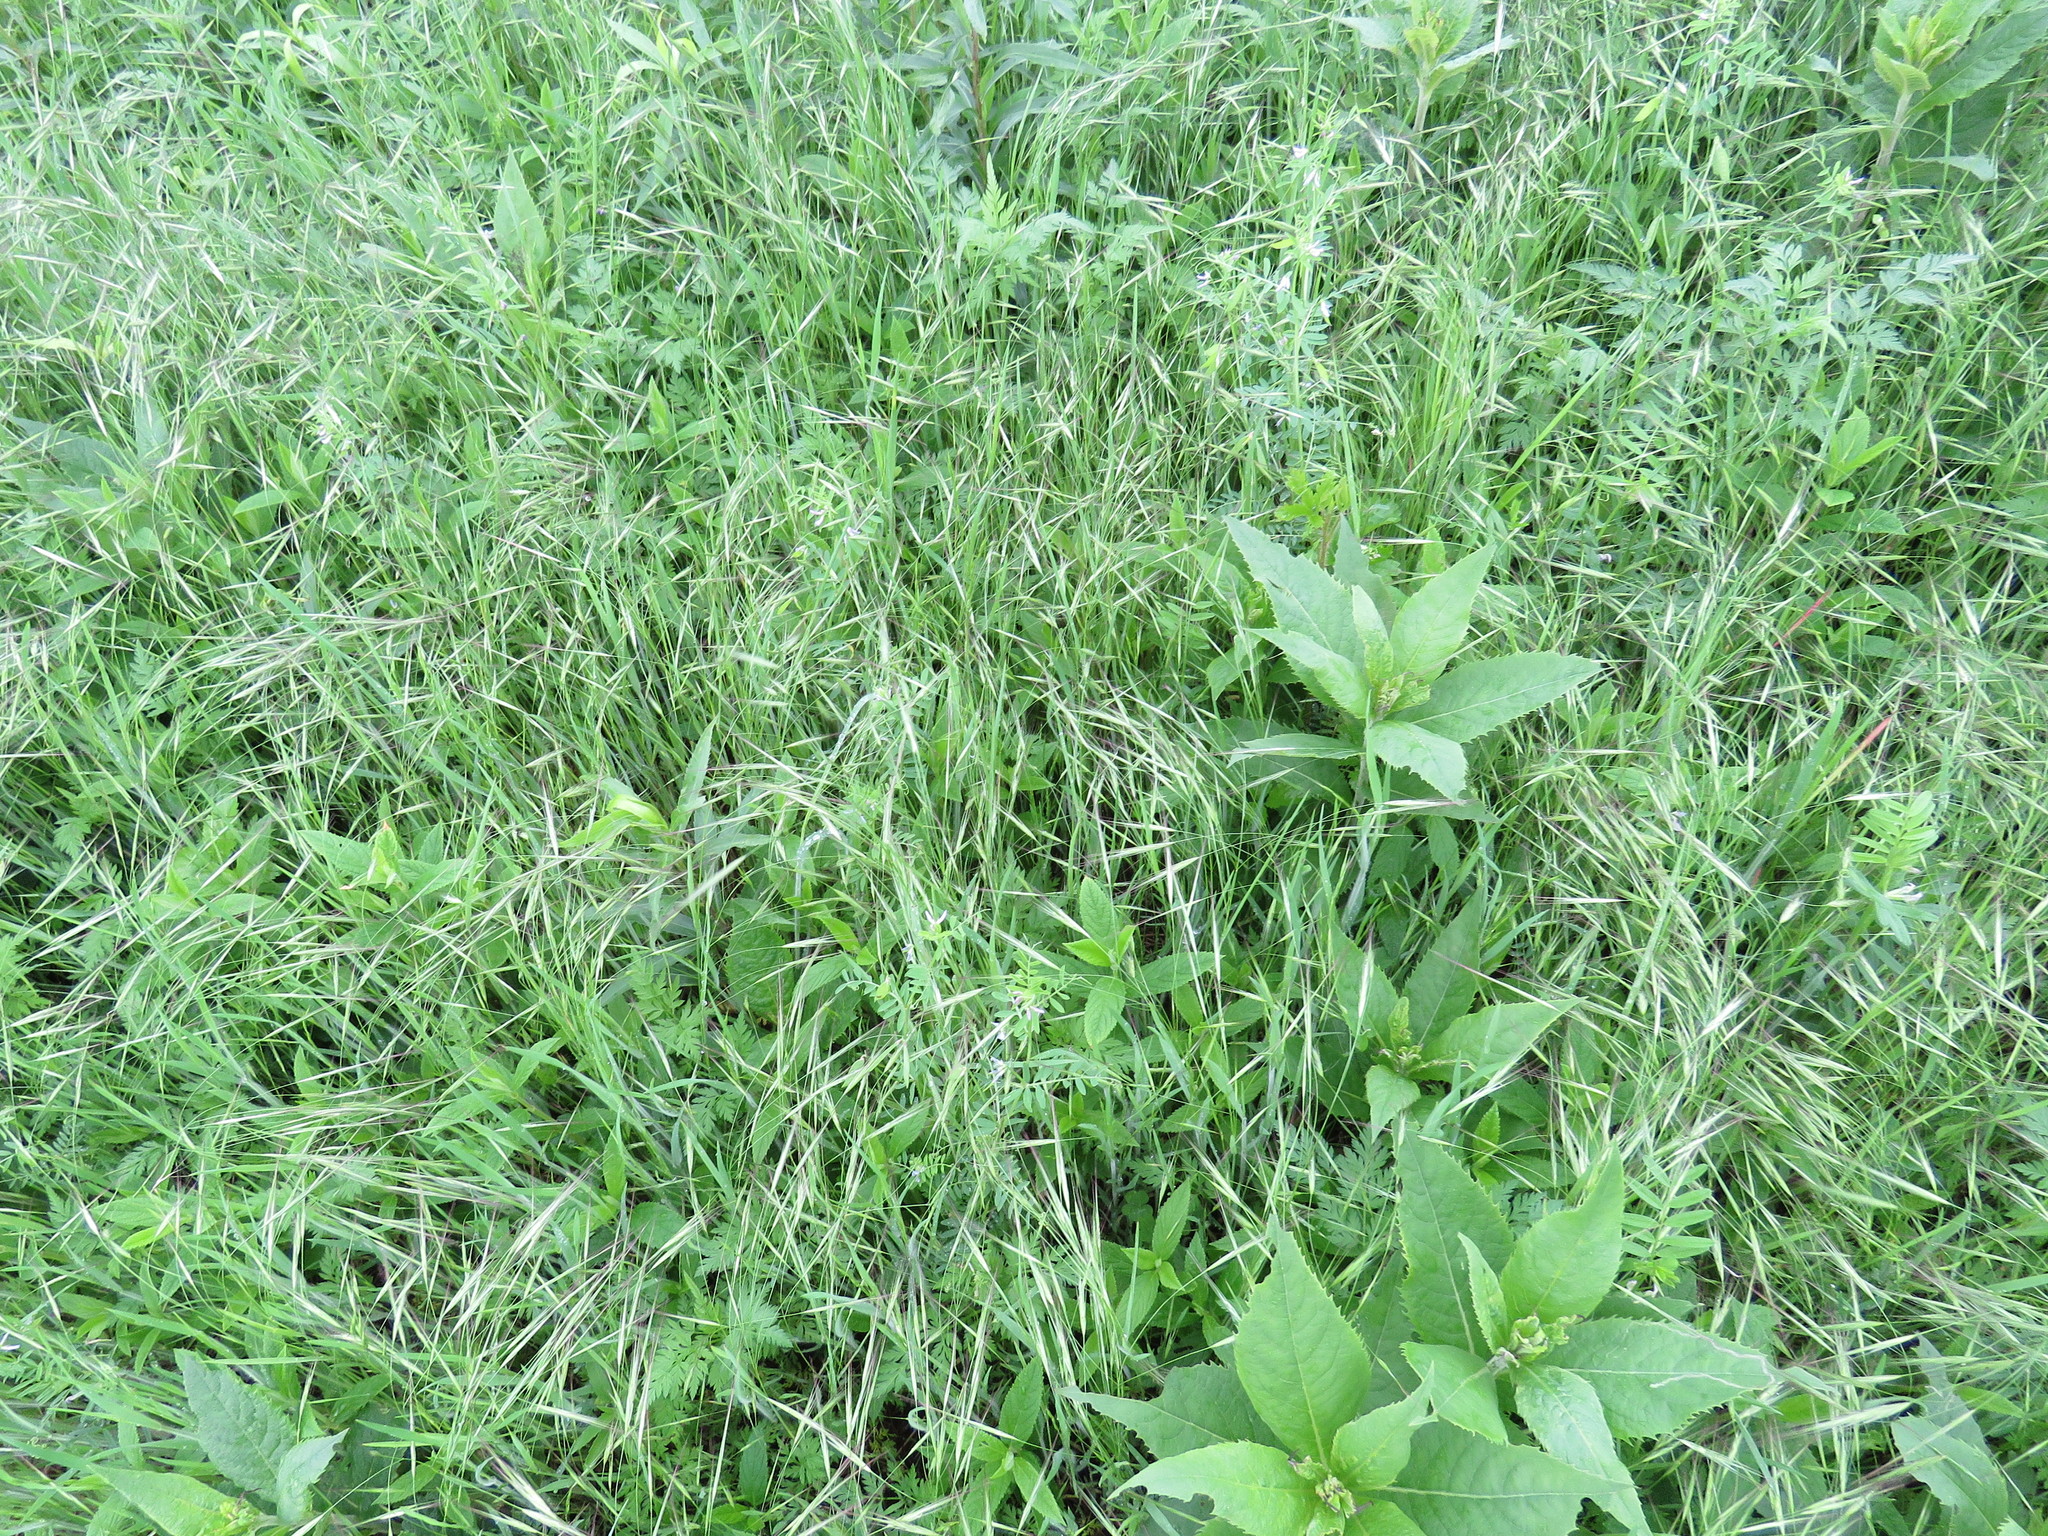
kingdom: Plantae
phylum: Tracheophyta
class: Liliopsida
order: Poales
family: Poaceae
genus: Bromus
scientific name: Bromus diandrus
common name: Ripgut brome
